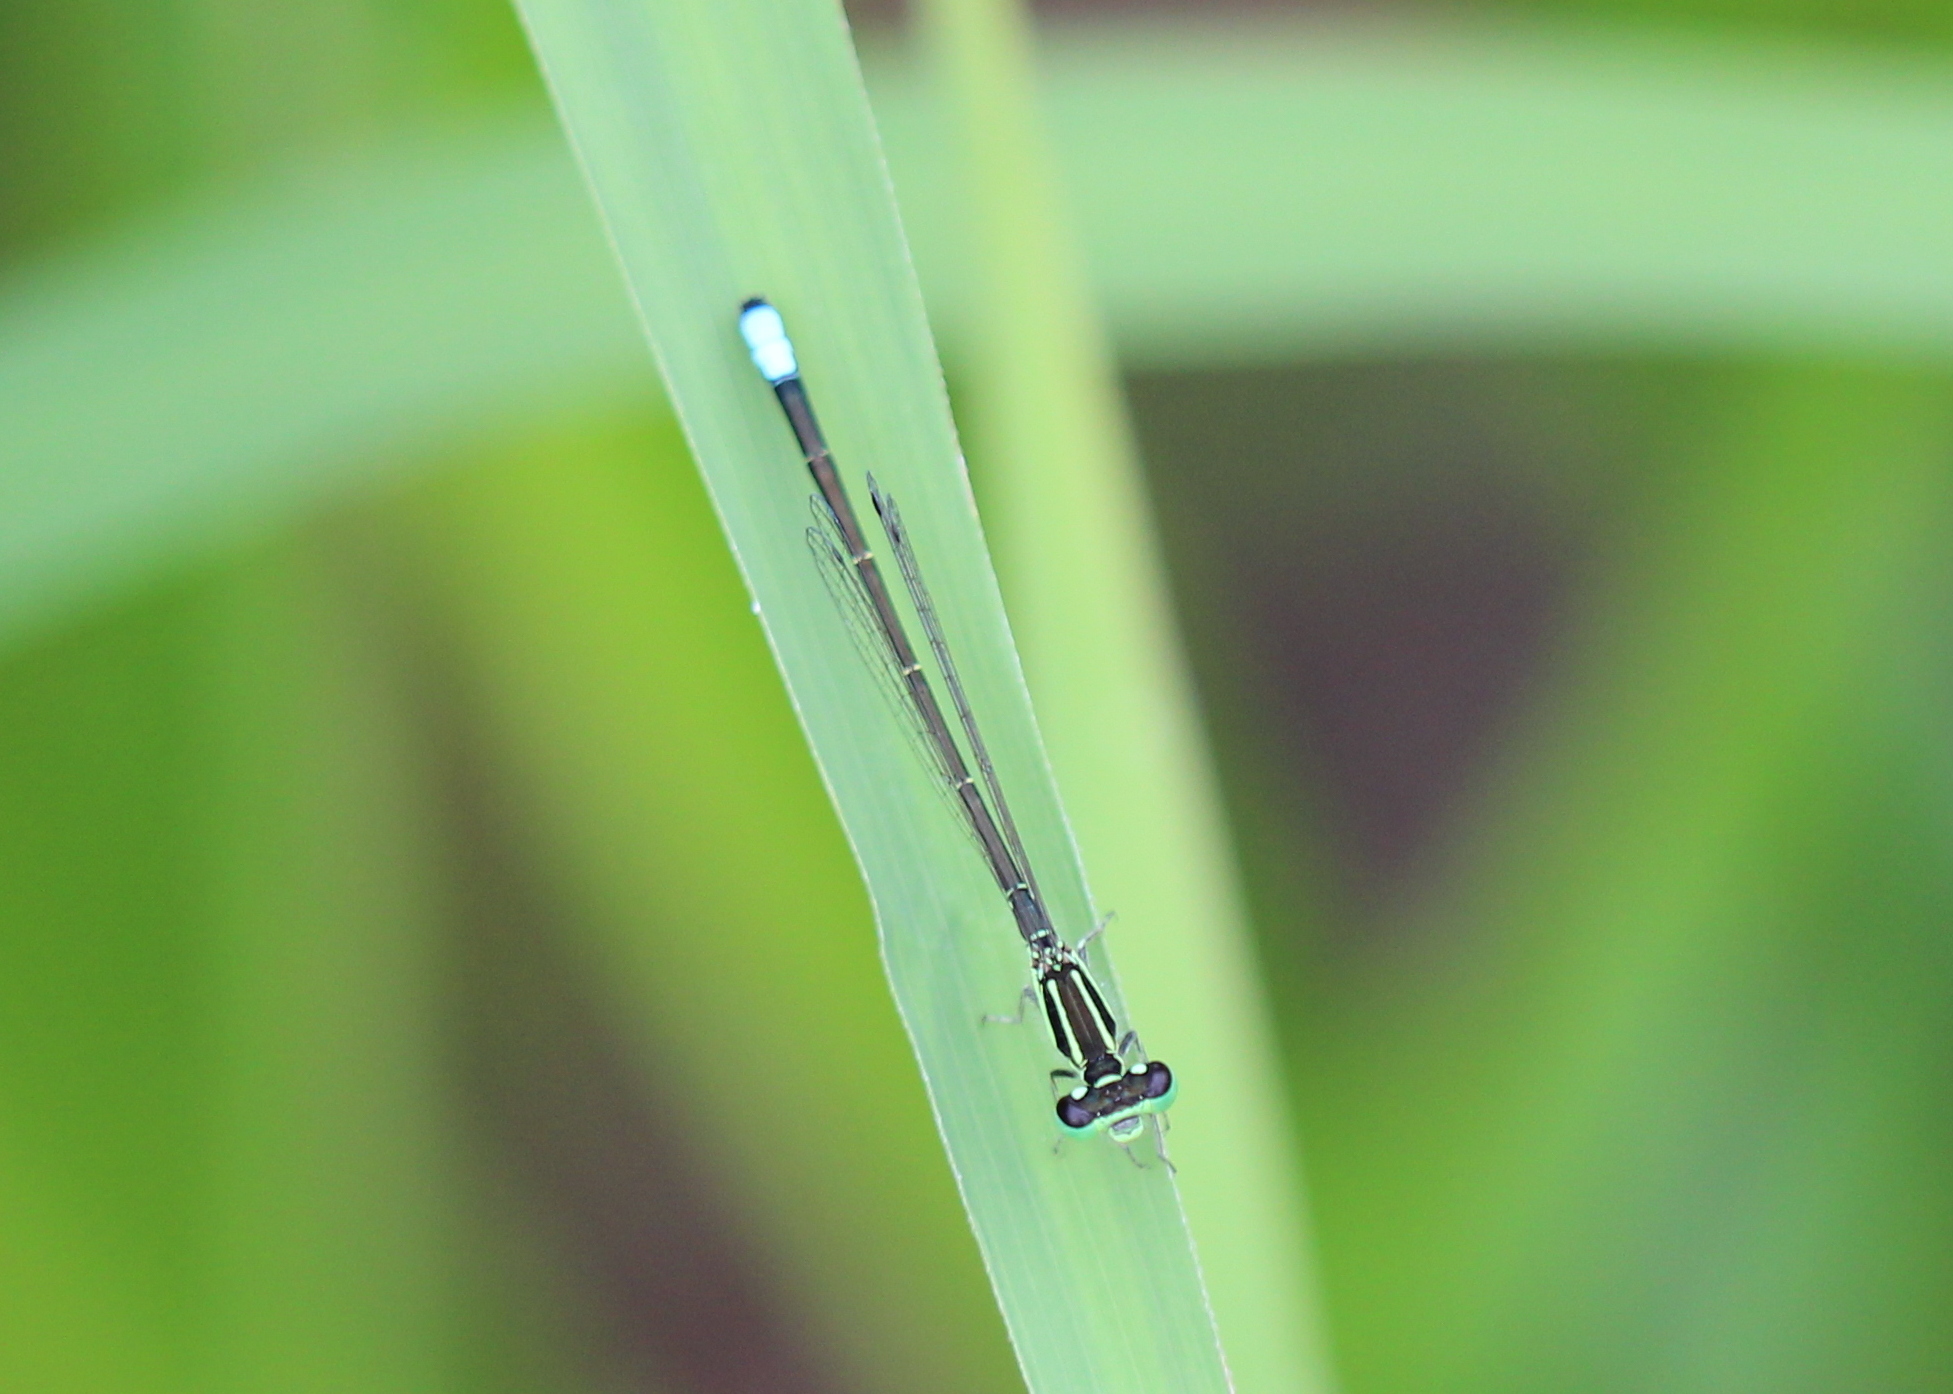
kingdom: Animalia
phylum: Arthropoda
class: Insecta
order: Odonata
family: Coenagrionidae
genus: Ischnura
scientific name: Ischnura verticalis
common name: Eastern forktail
